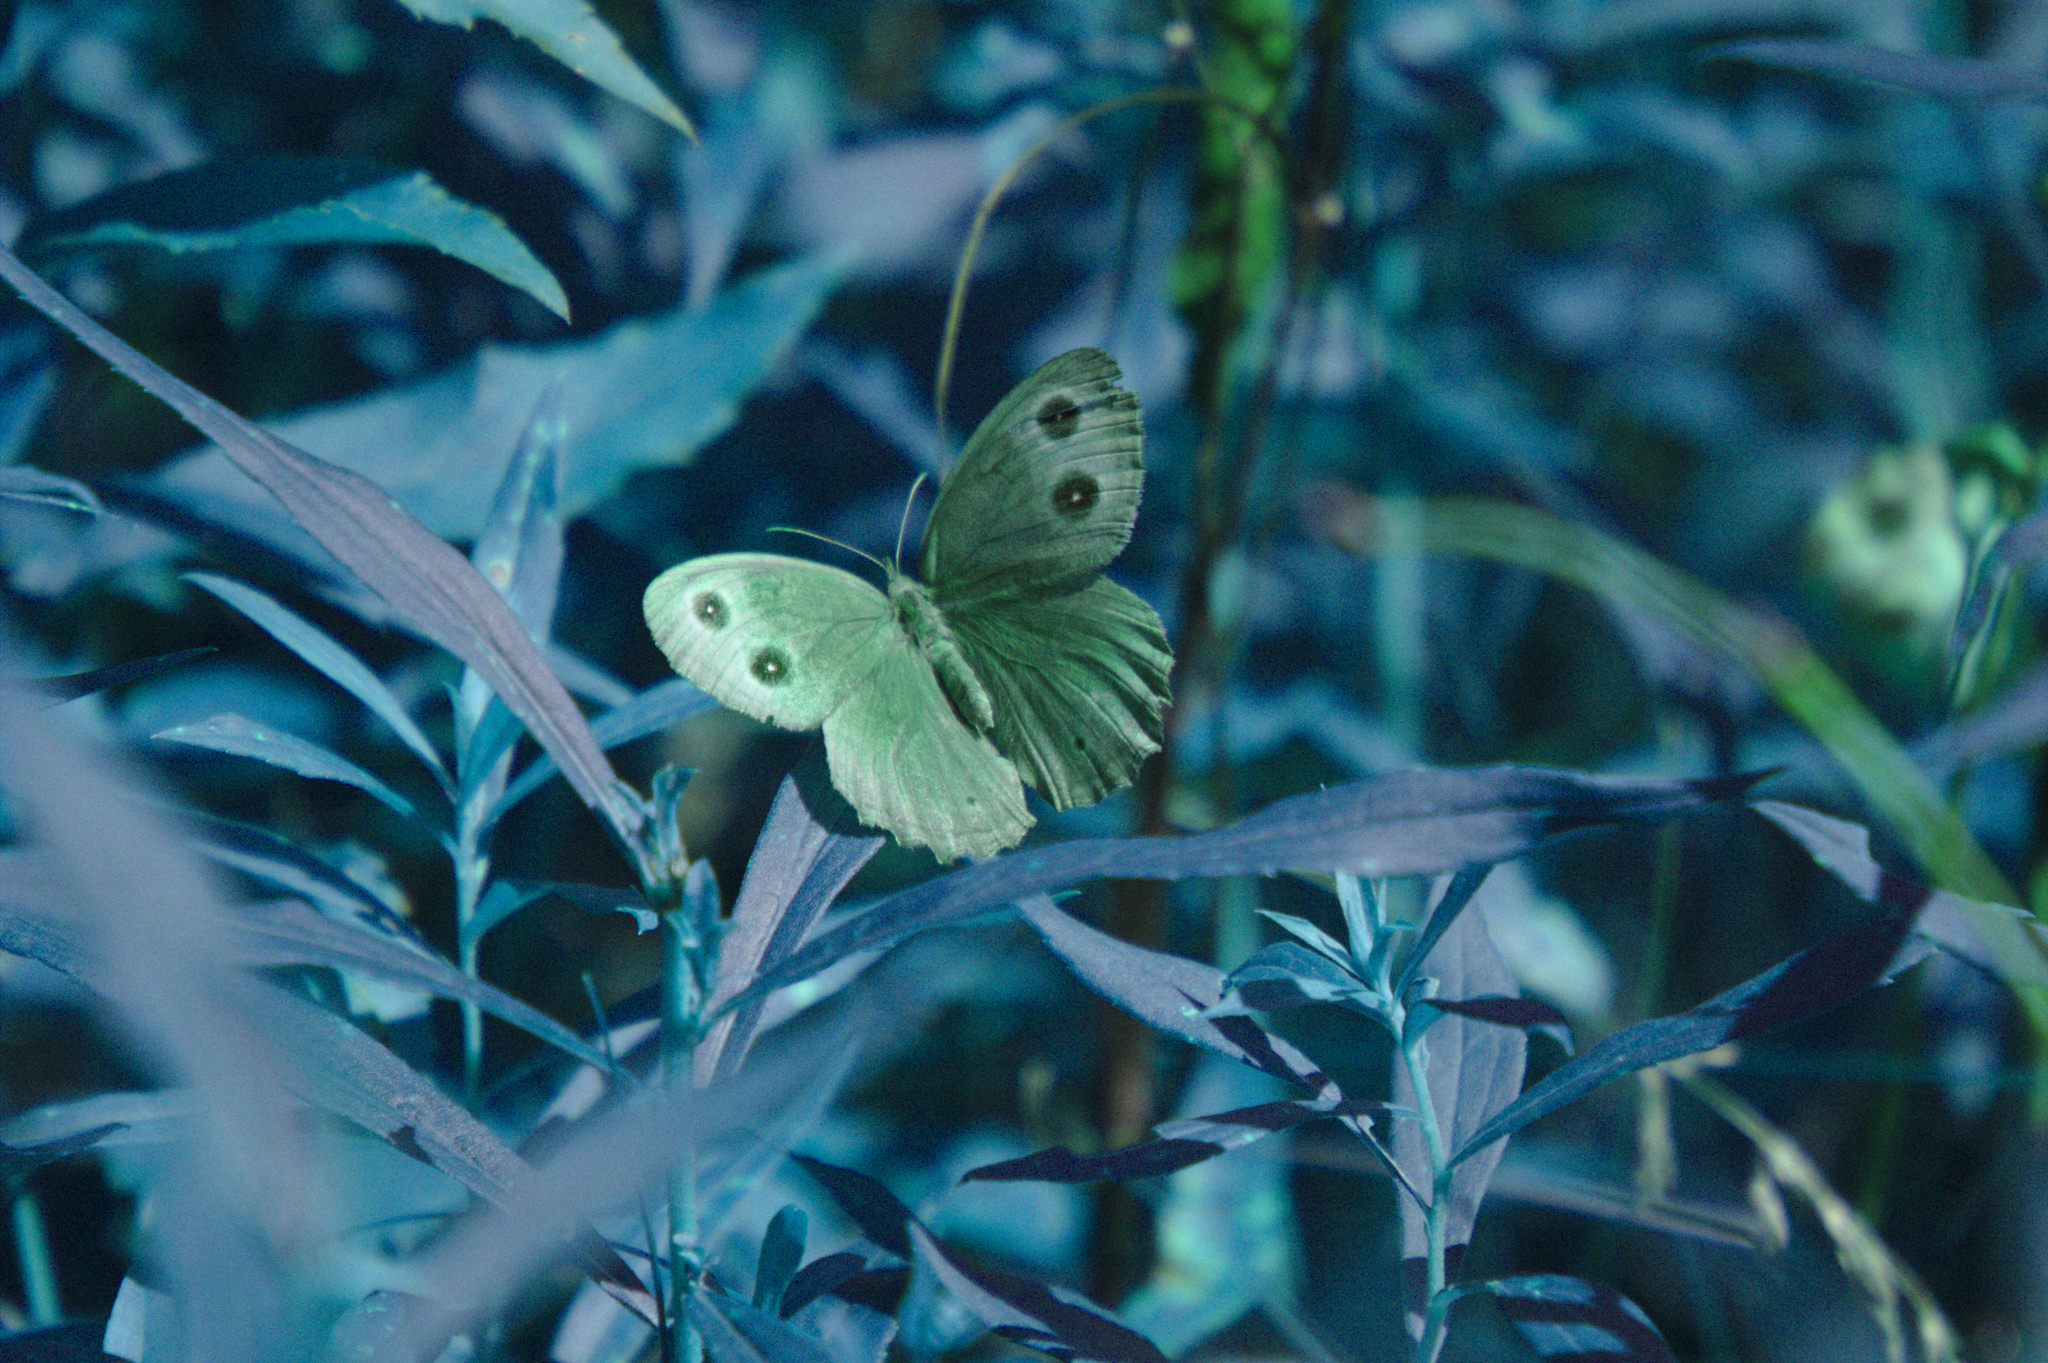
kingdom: Animalia
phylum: Arthropoda
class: Insecta
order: Lepidoptera
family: Nymphalidae
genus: Cercyonis
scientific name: Cercyonis pegala
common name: Common wood-nymph
